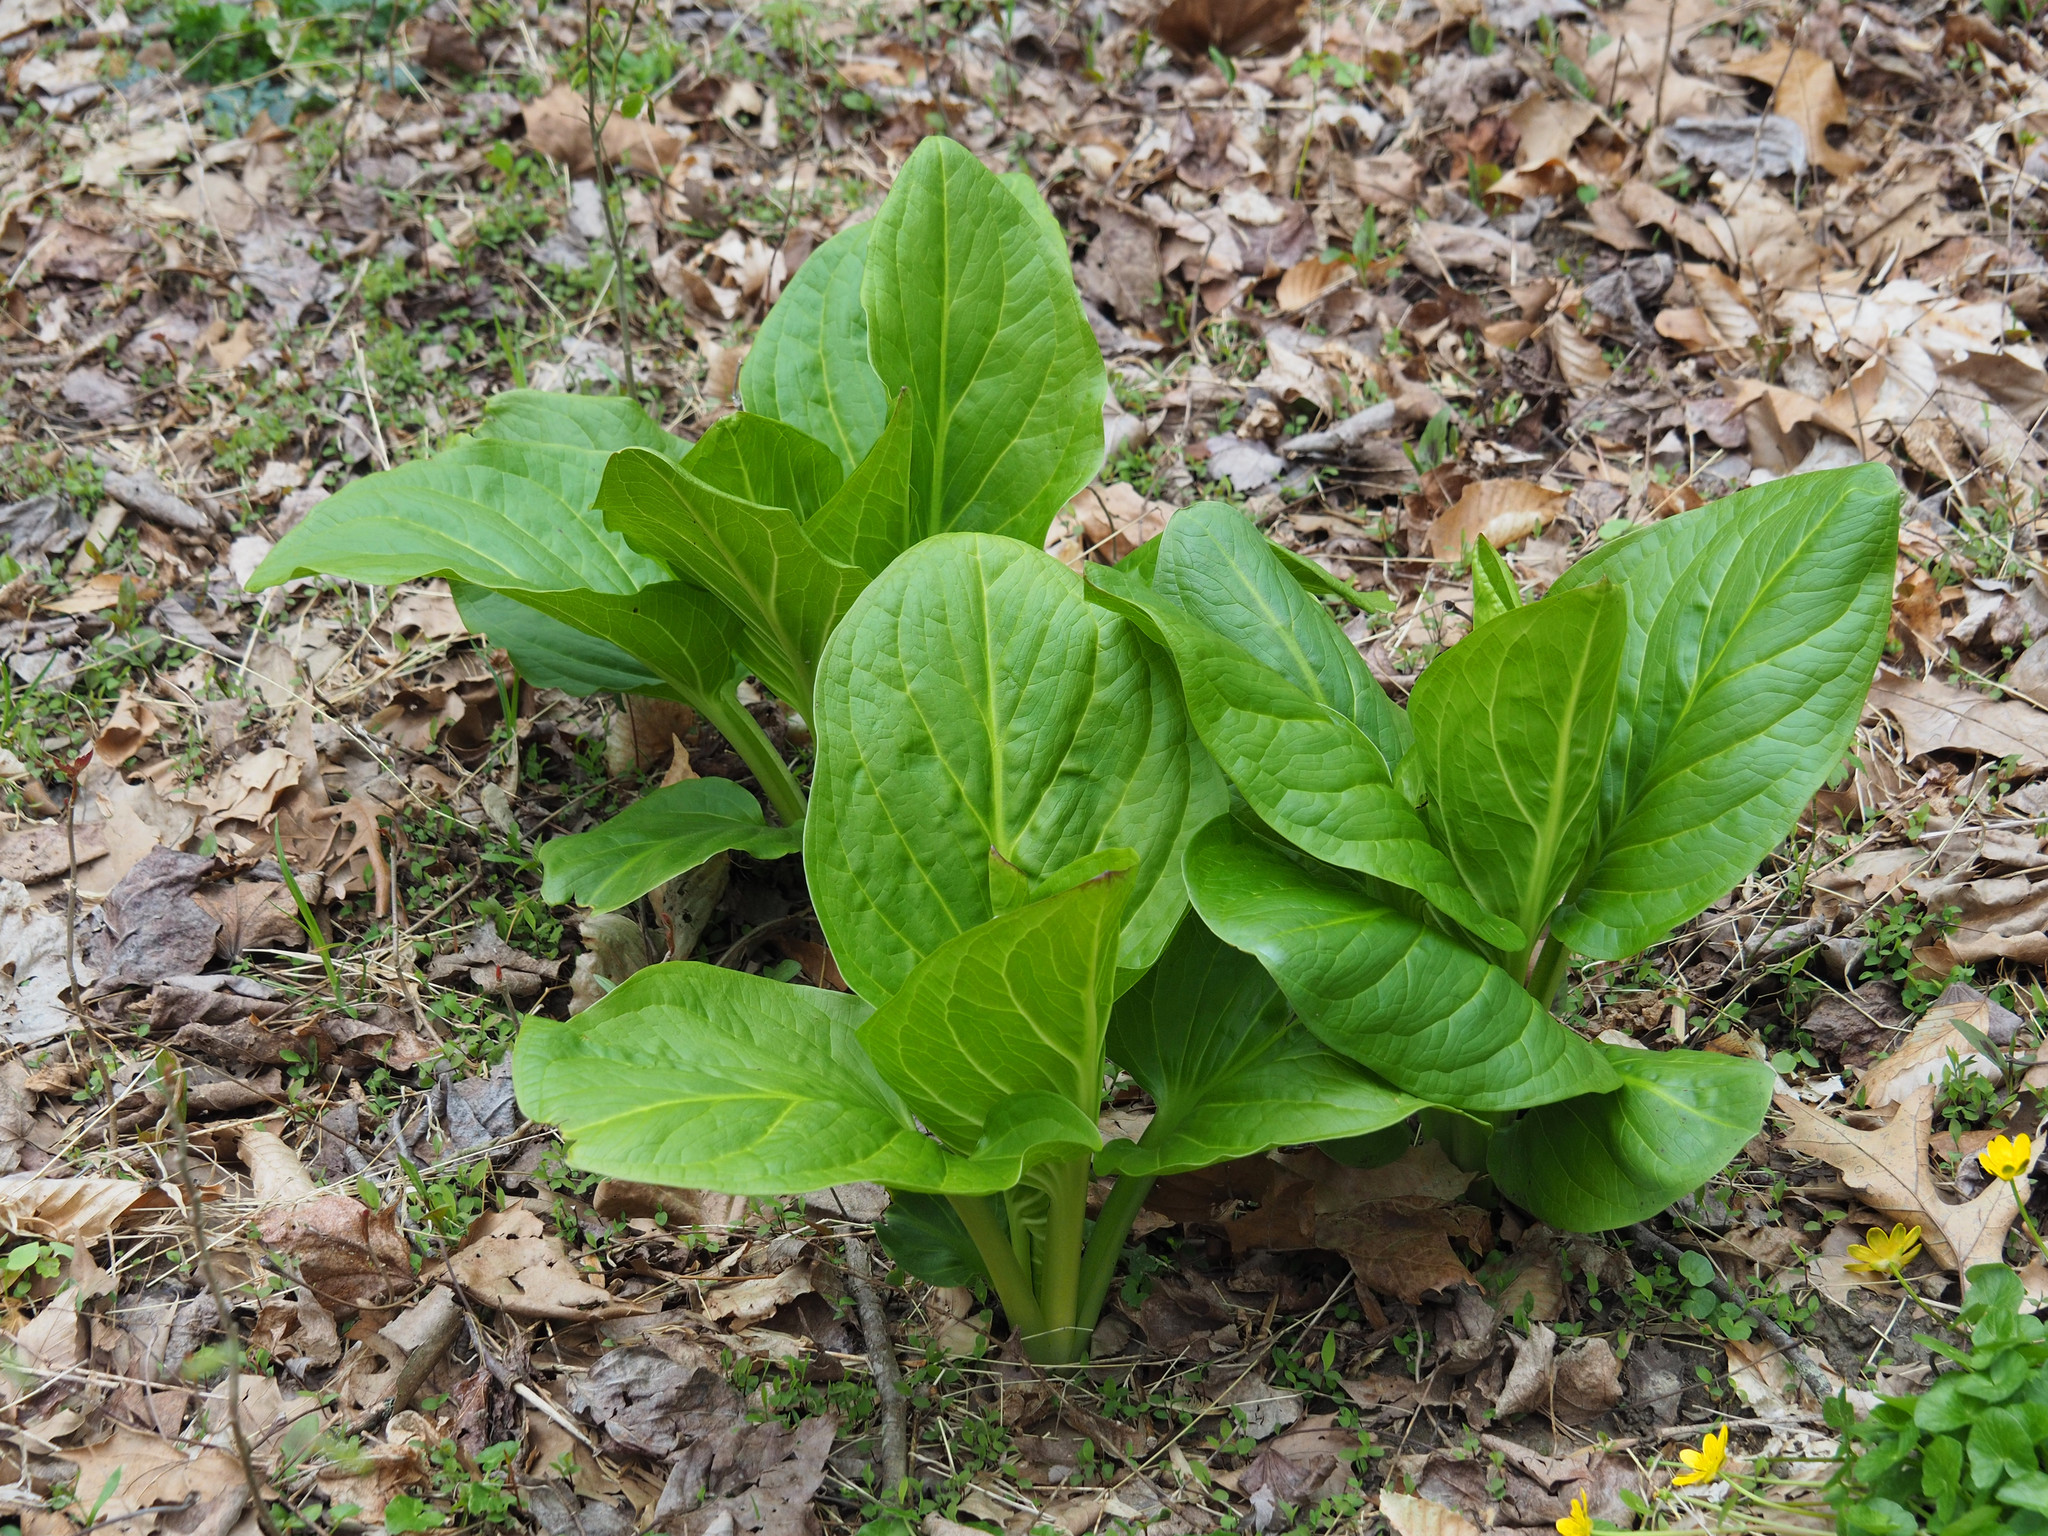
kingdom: Plantae
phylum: Tracheophyta
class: Liliopsida
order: Alismatales
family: Araceae
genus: Symplocarpus
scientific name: Symplocarpus foetidus
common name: Eastern skunk cabbage
